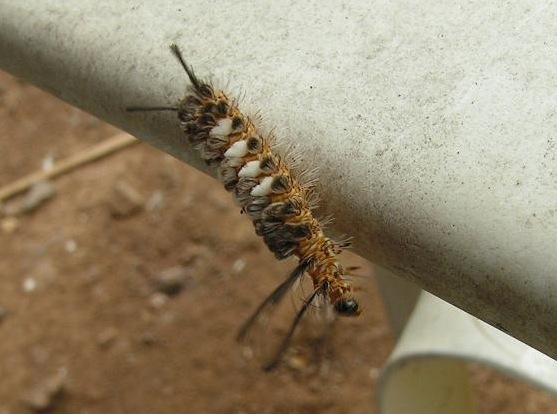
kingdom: Animalia
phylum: Arthropoda
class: Insecta
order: Lepidoptera
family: Erebidae
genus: Syntomeida
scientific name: Syntomeida
